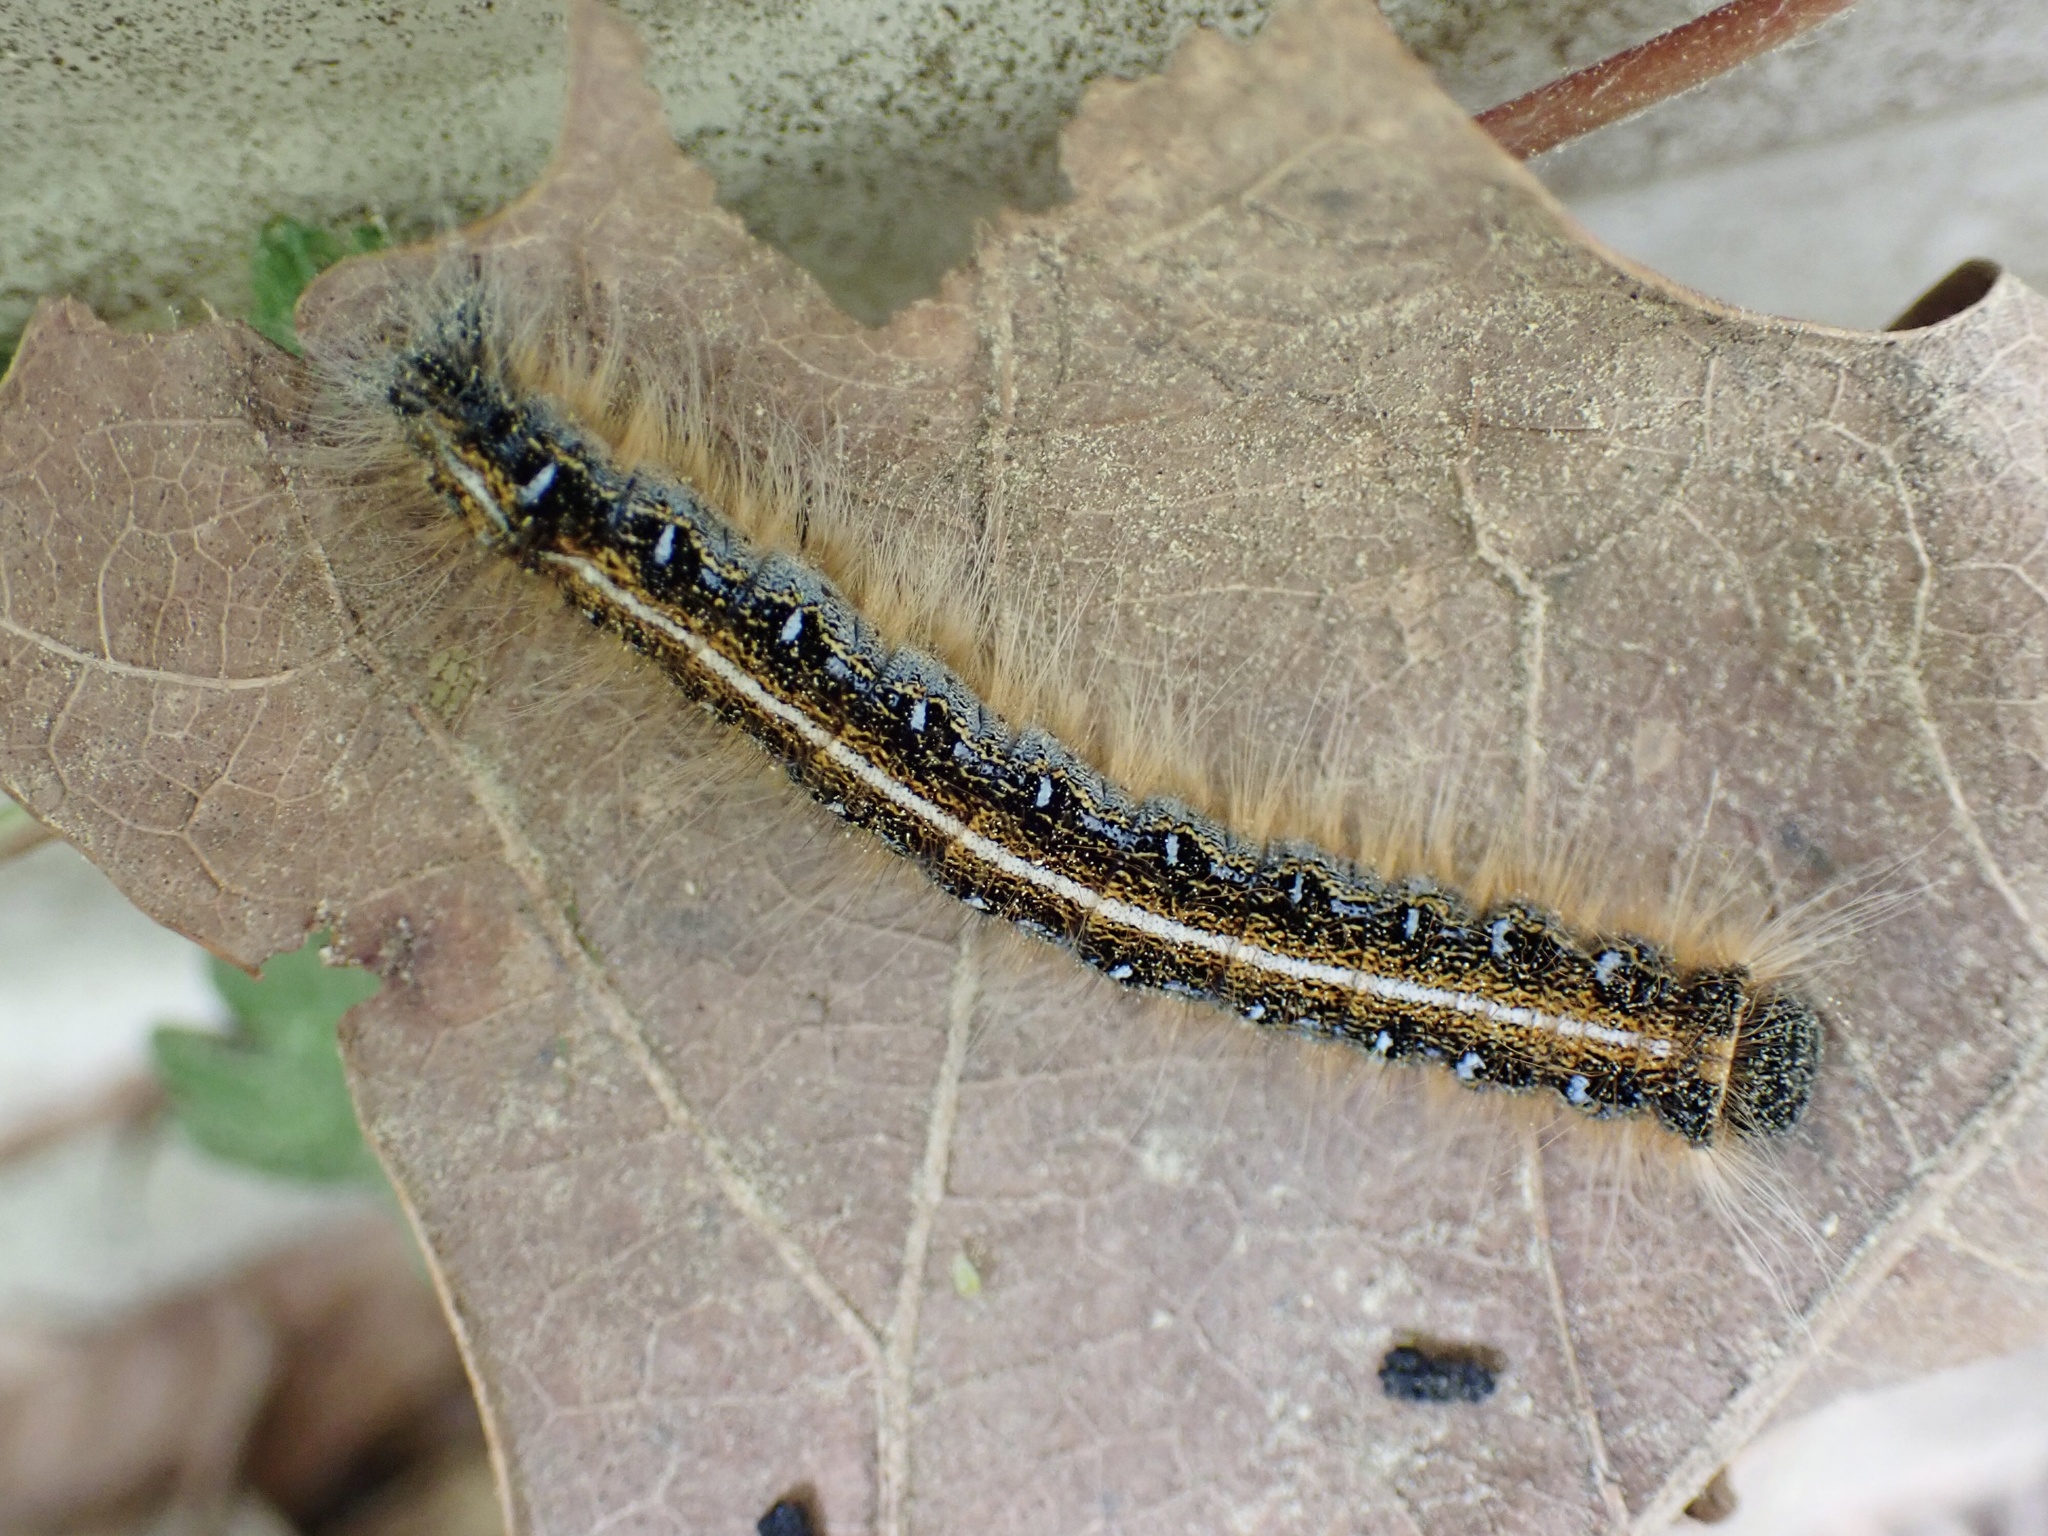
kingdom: Animalia
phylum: Arthropoda
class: Insecta
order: Lepidoptera
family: Lasiocampidae
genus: Malacosoma
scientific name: Malacosoma americana
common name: Eastern tent caterpillar moth
